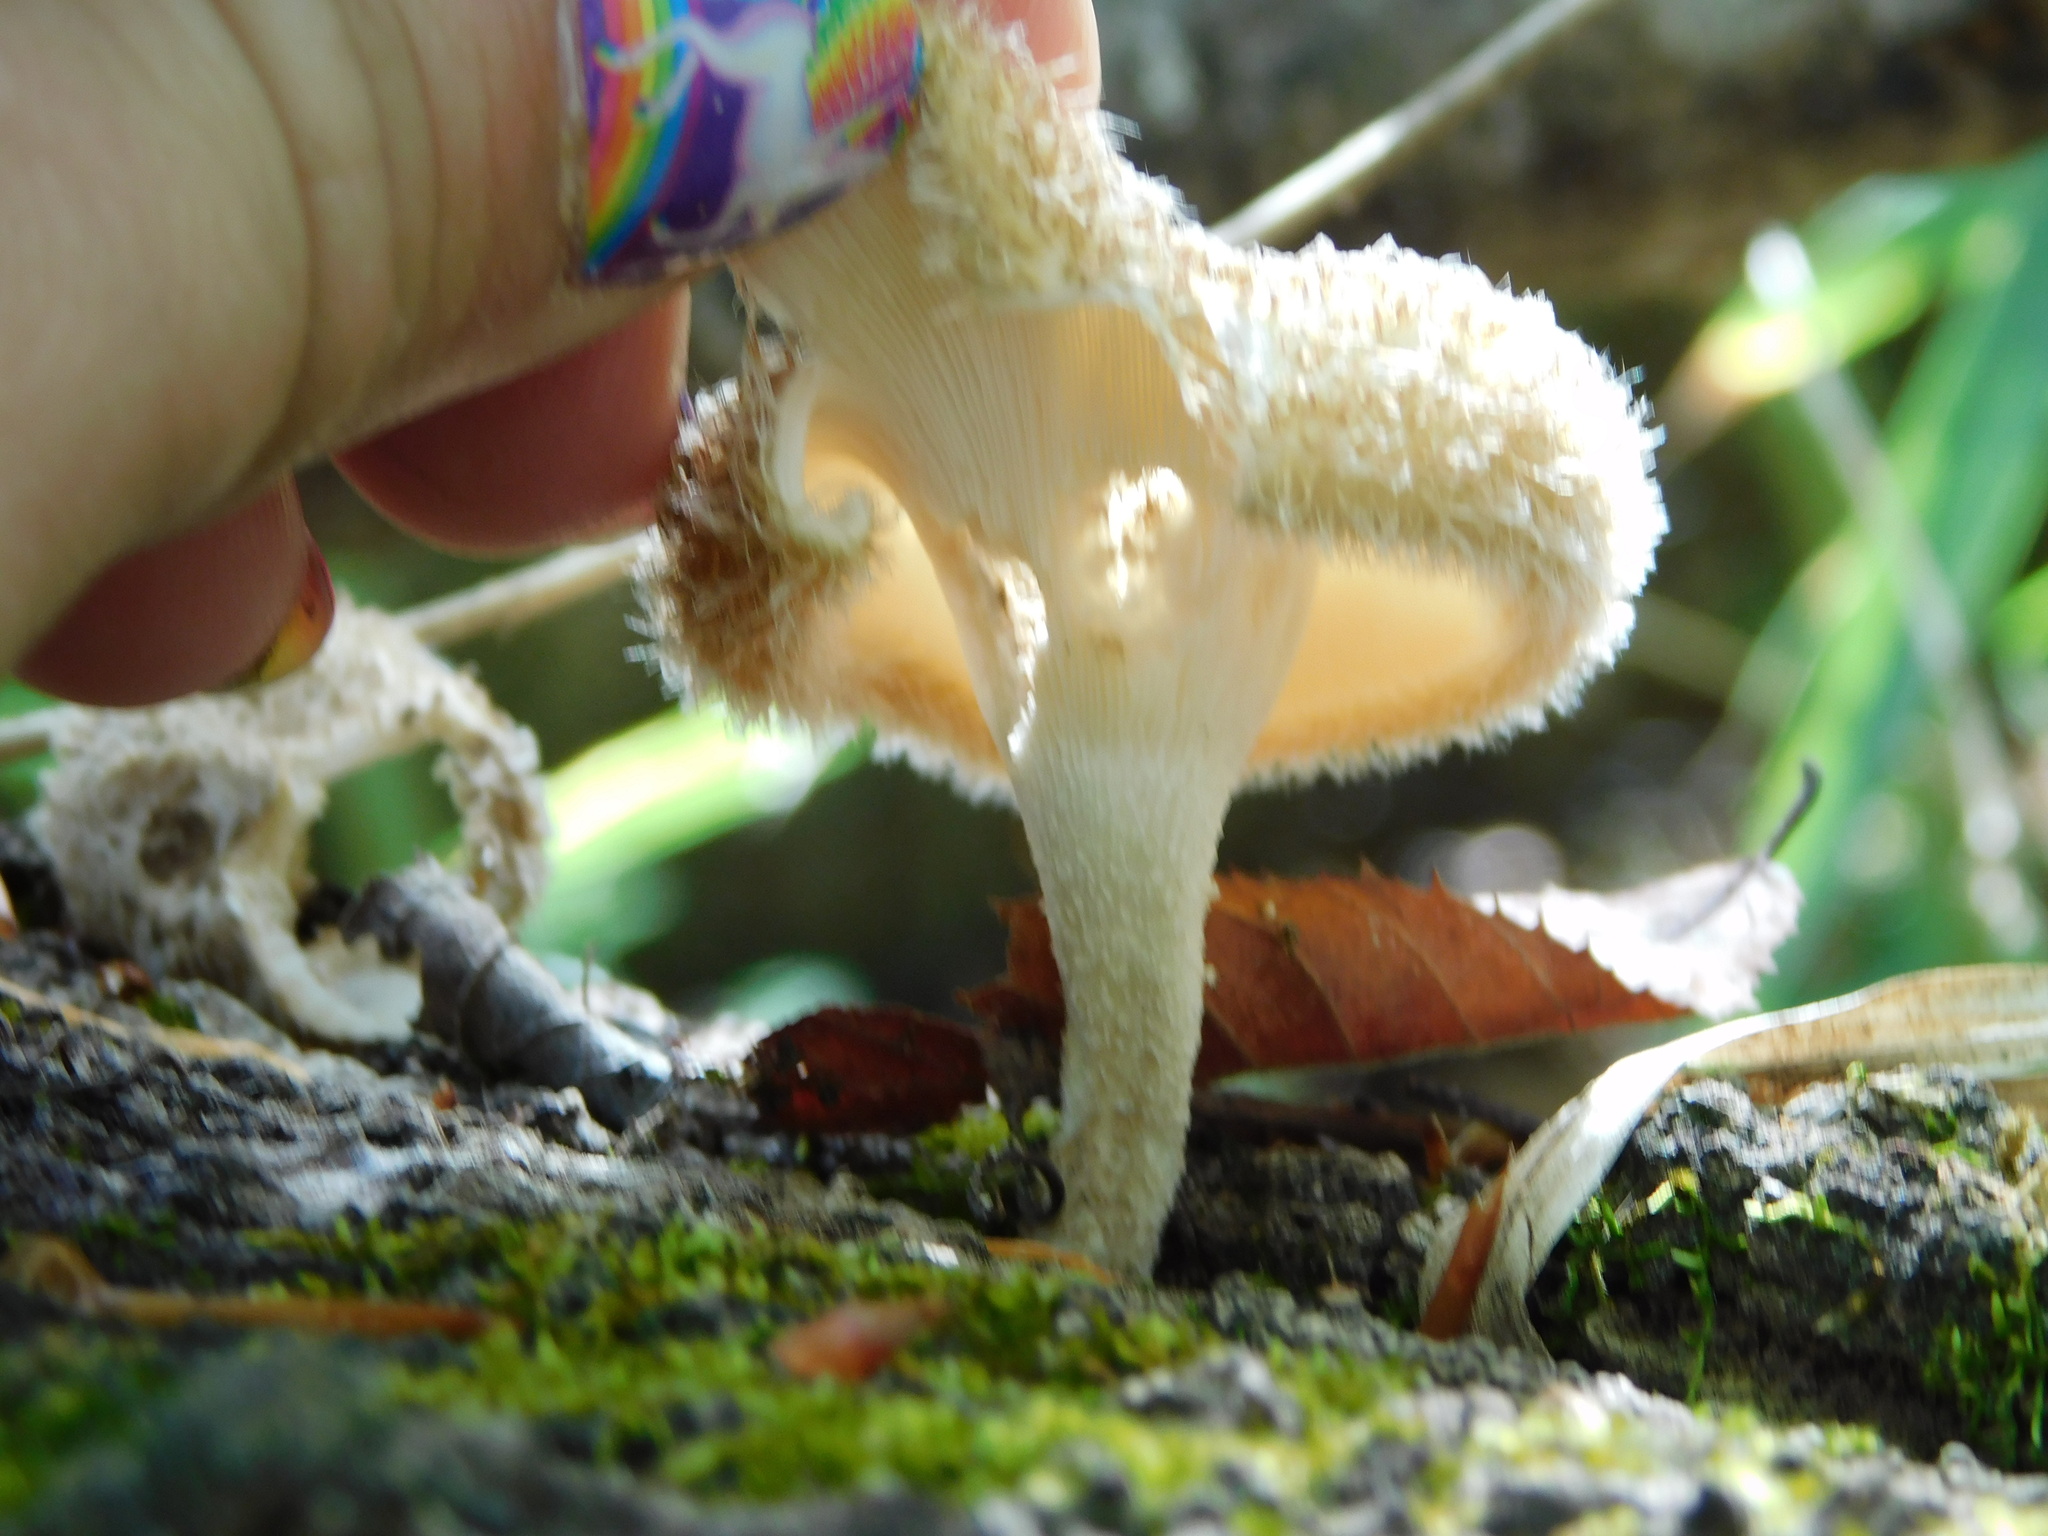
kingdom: Fungi
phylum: Basidiomycota
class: Agaricomycetes
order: Polyporales
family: Polyporaceae
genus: Lentinus
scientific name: Lentinus crinitus
